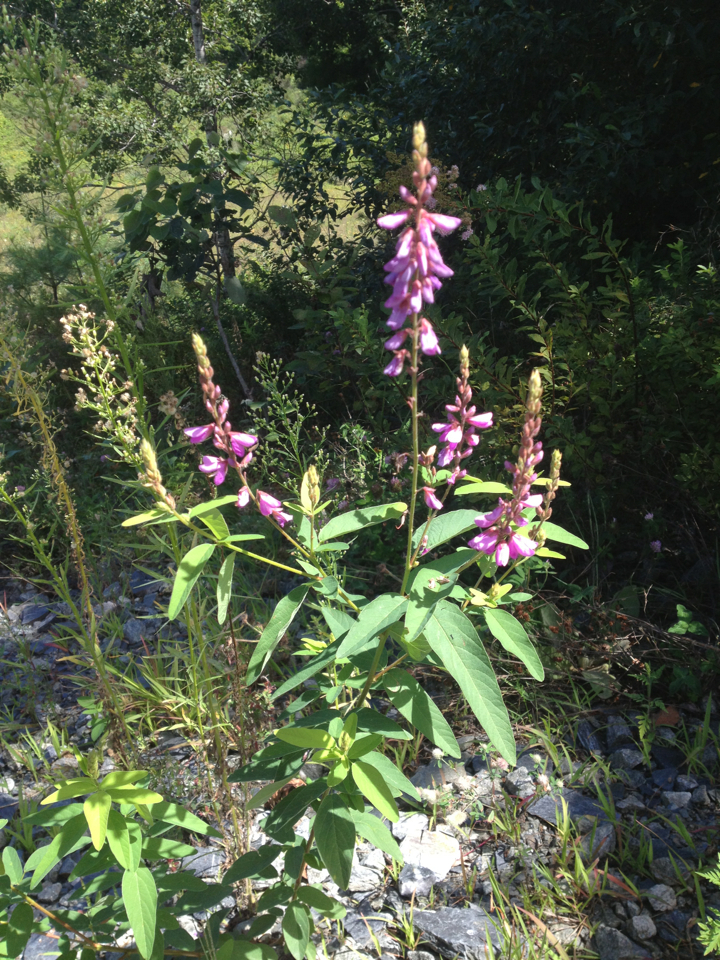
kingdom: Plantae
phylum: Tracheophyta
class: Magnoliopsida
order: Fabales
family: Fabaceae
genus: Desmodium
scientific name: Desmodium canadense
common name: Canada tick-trefoil
